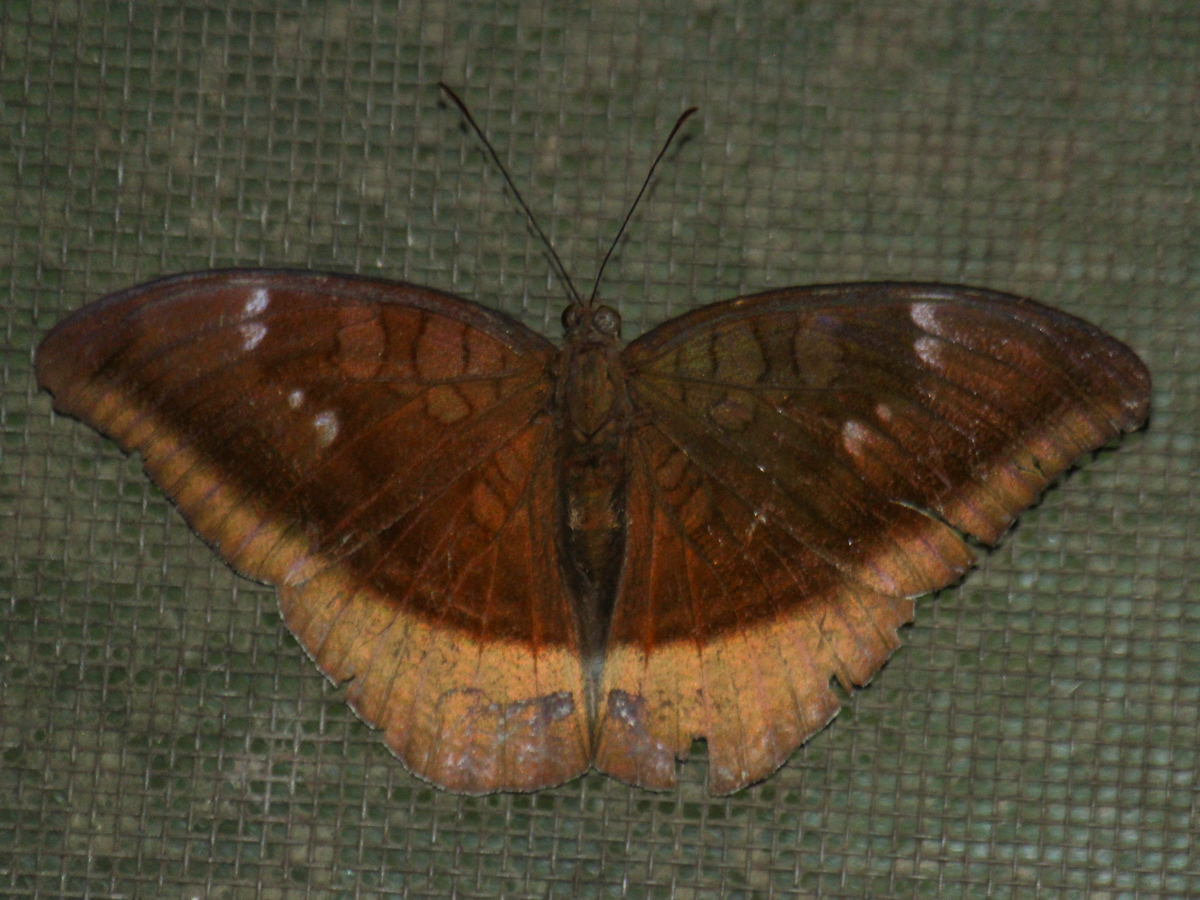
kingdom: Animalia
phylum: Arthropoda
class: Insecta
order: Lepidoptera
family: Nymphalidae
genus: Tanaecia
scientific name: Tanaecia lepidea
